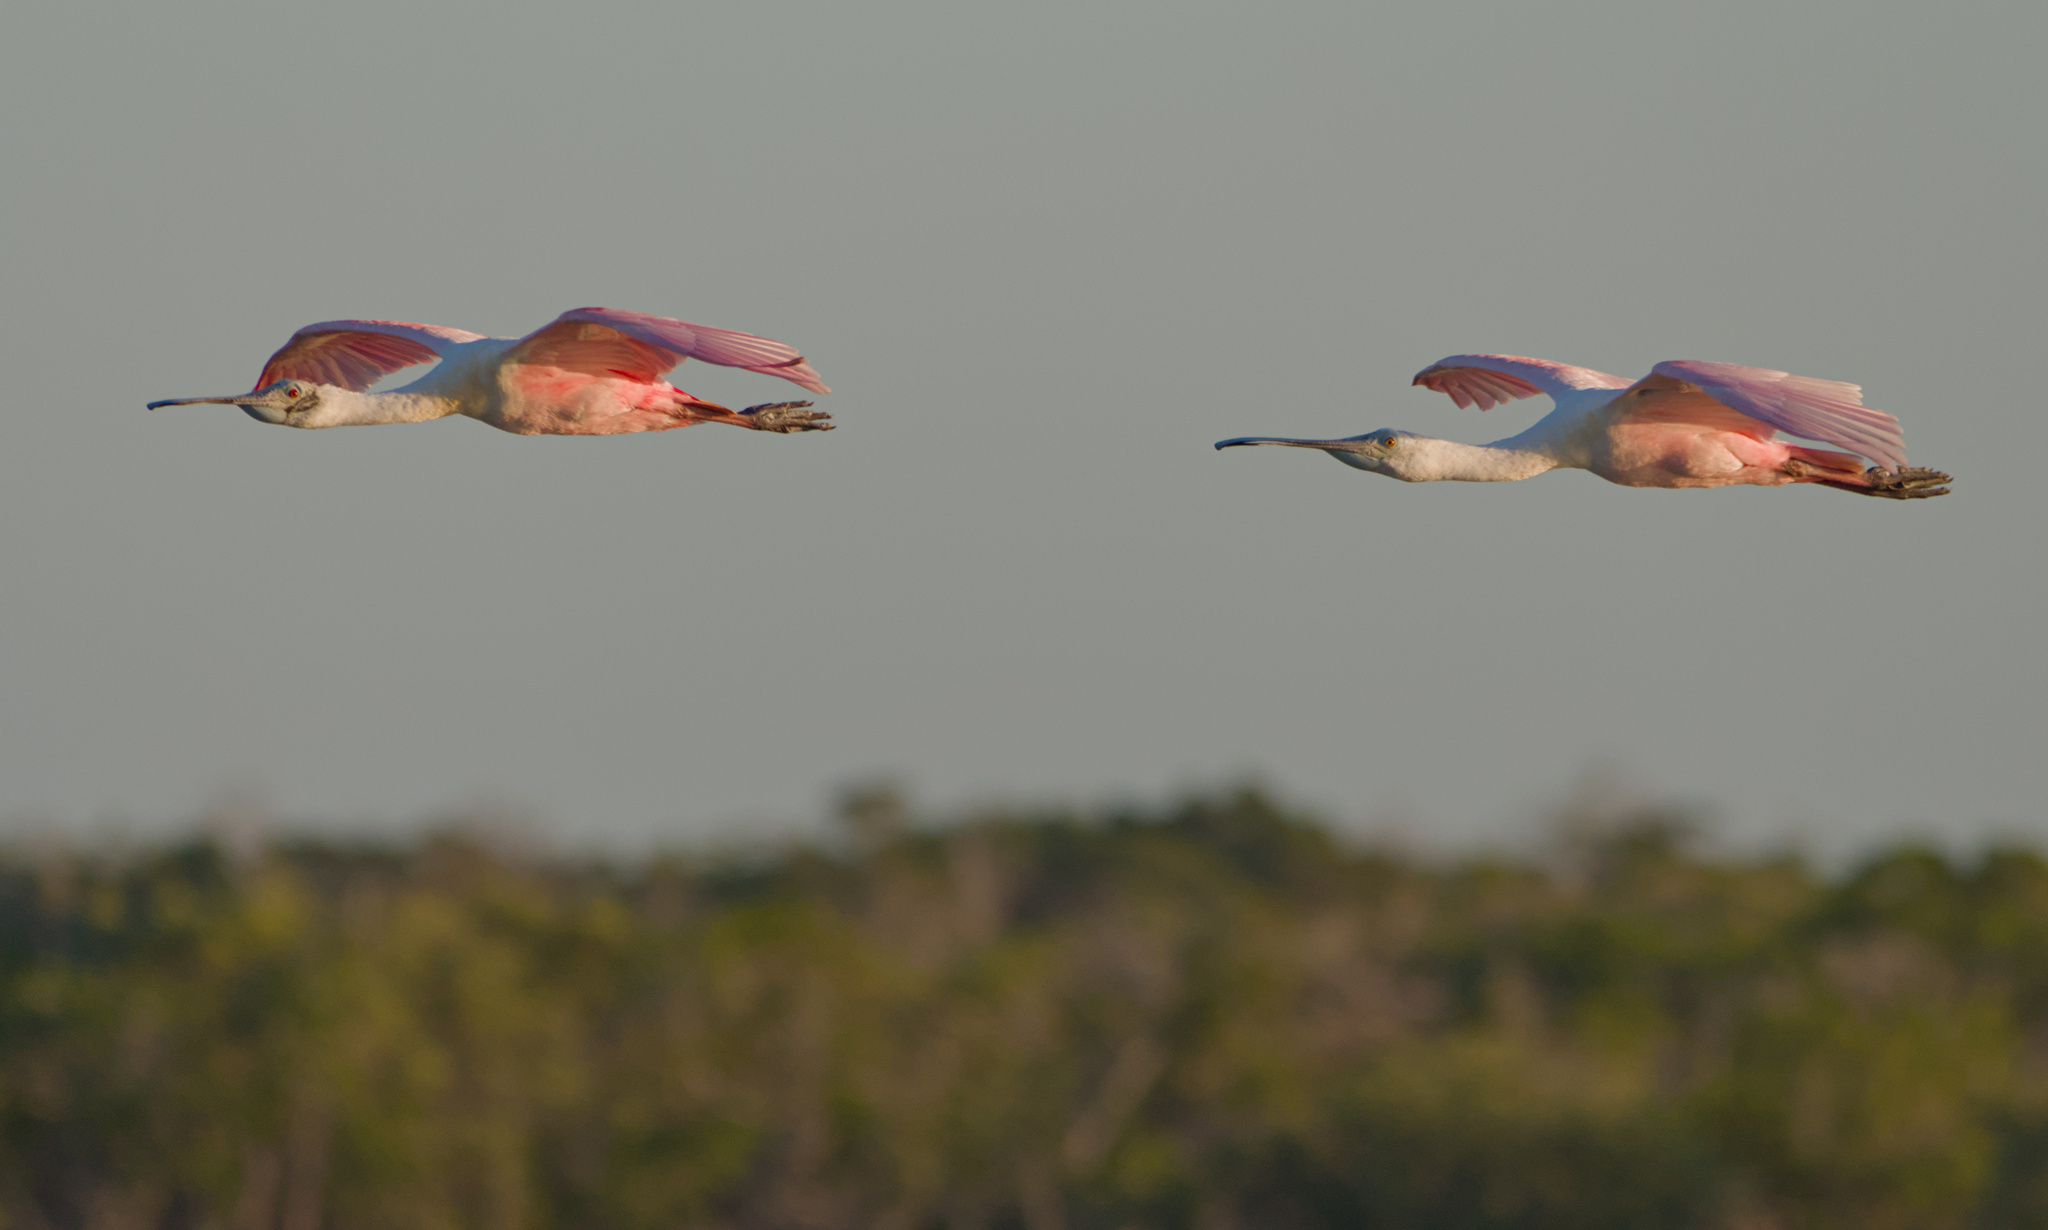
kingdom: Animalia
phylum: Chordata
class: Aves
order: Pelecaniformes
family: Threskiornithidae
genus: Platalea
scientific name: Platalea ajaja
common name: Roseate spoonbill
